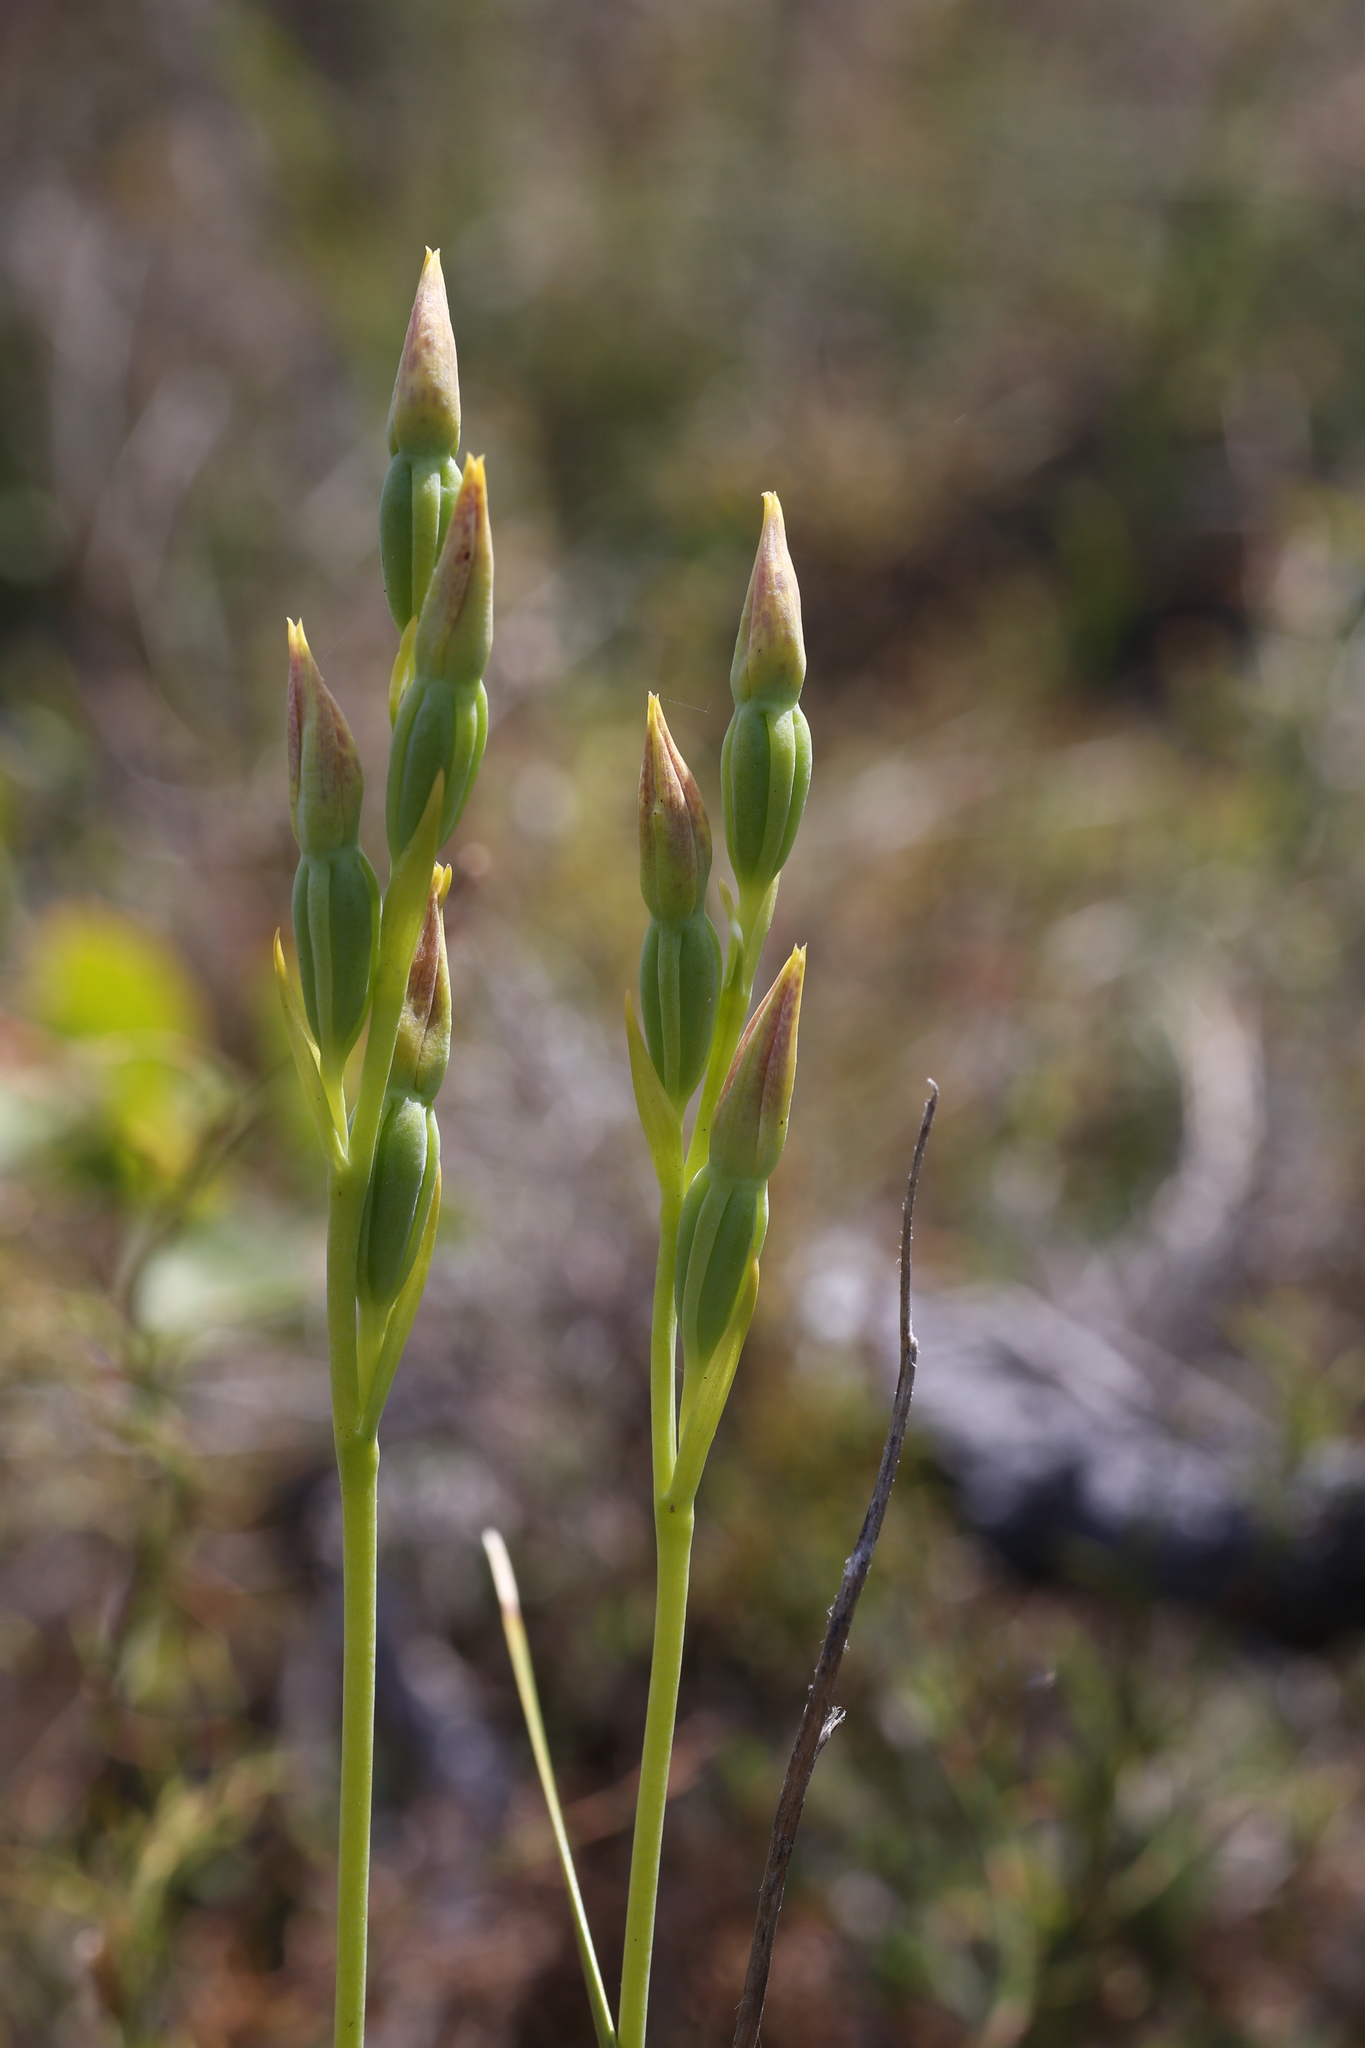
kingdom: Plantae
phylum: Tracheophyta
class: Liliopsida
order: Asparagales
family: Orchidaceae
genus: Thelymitra
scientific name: Thelymitra benthamiana
